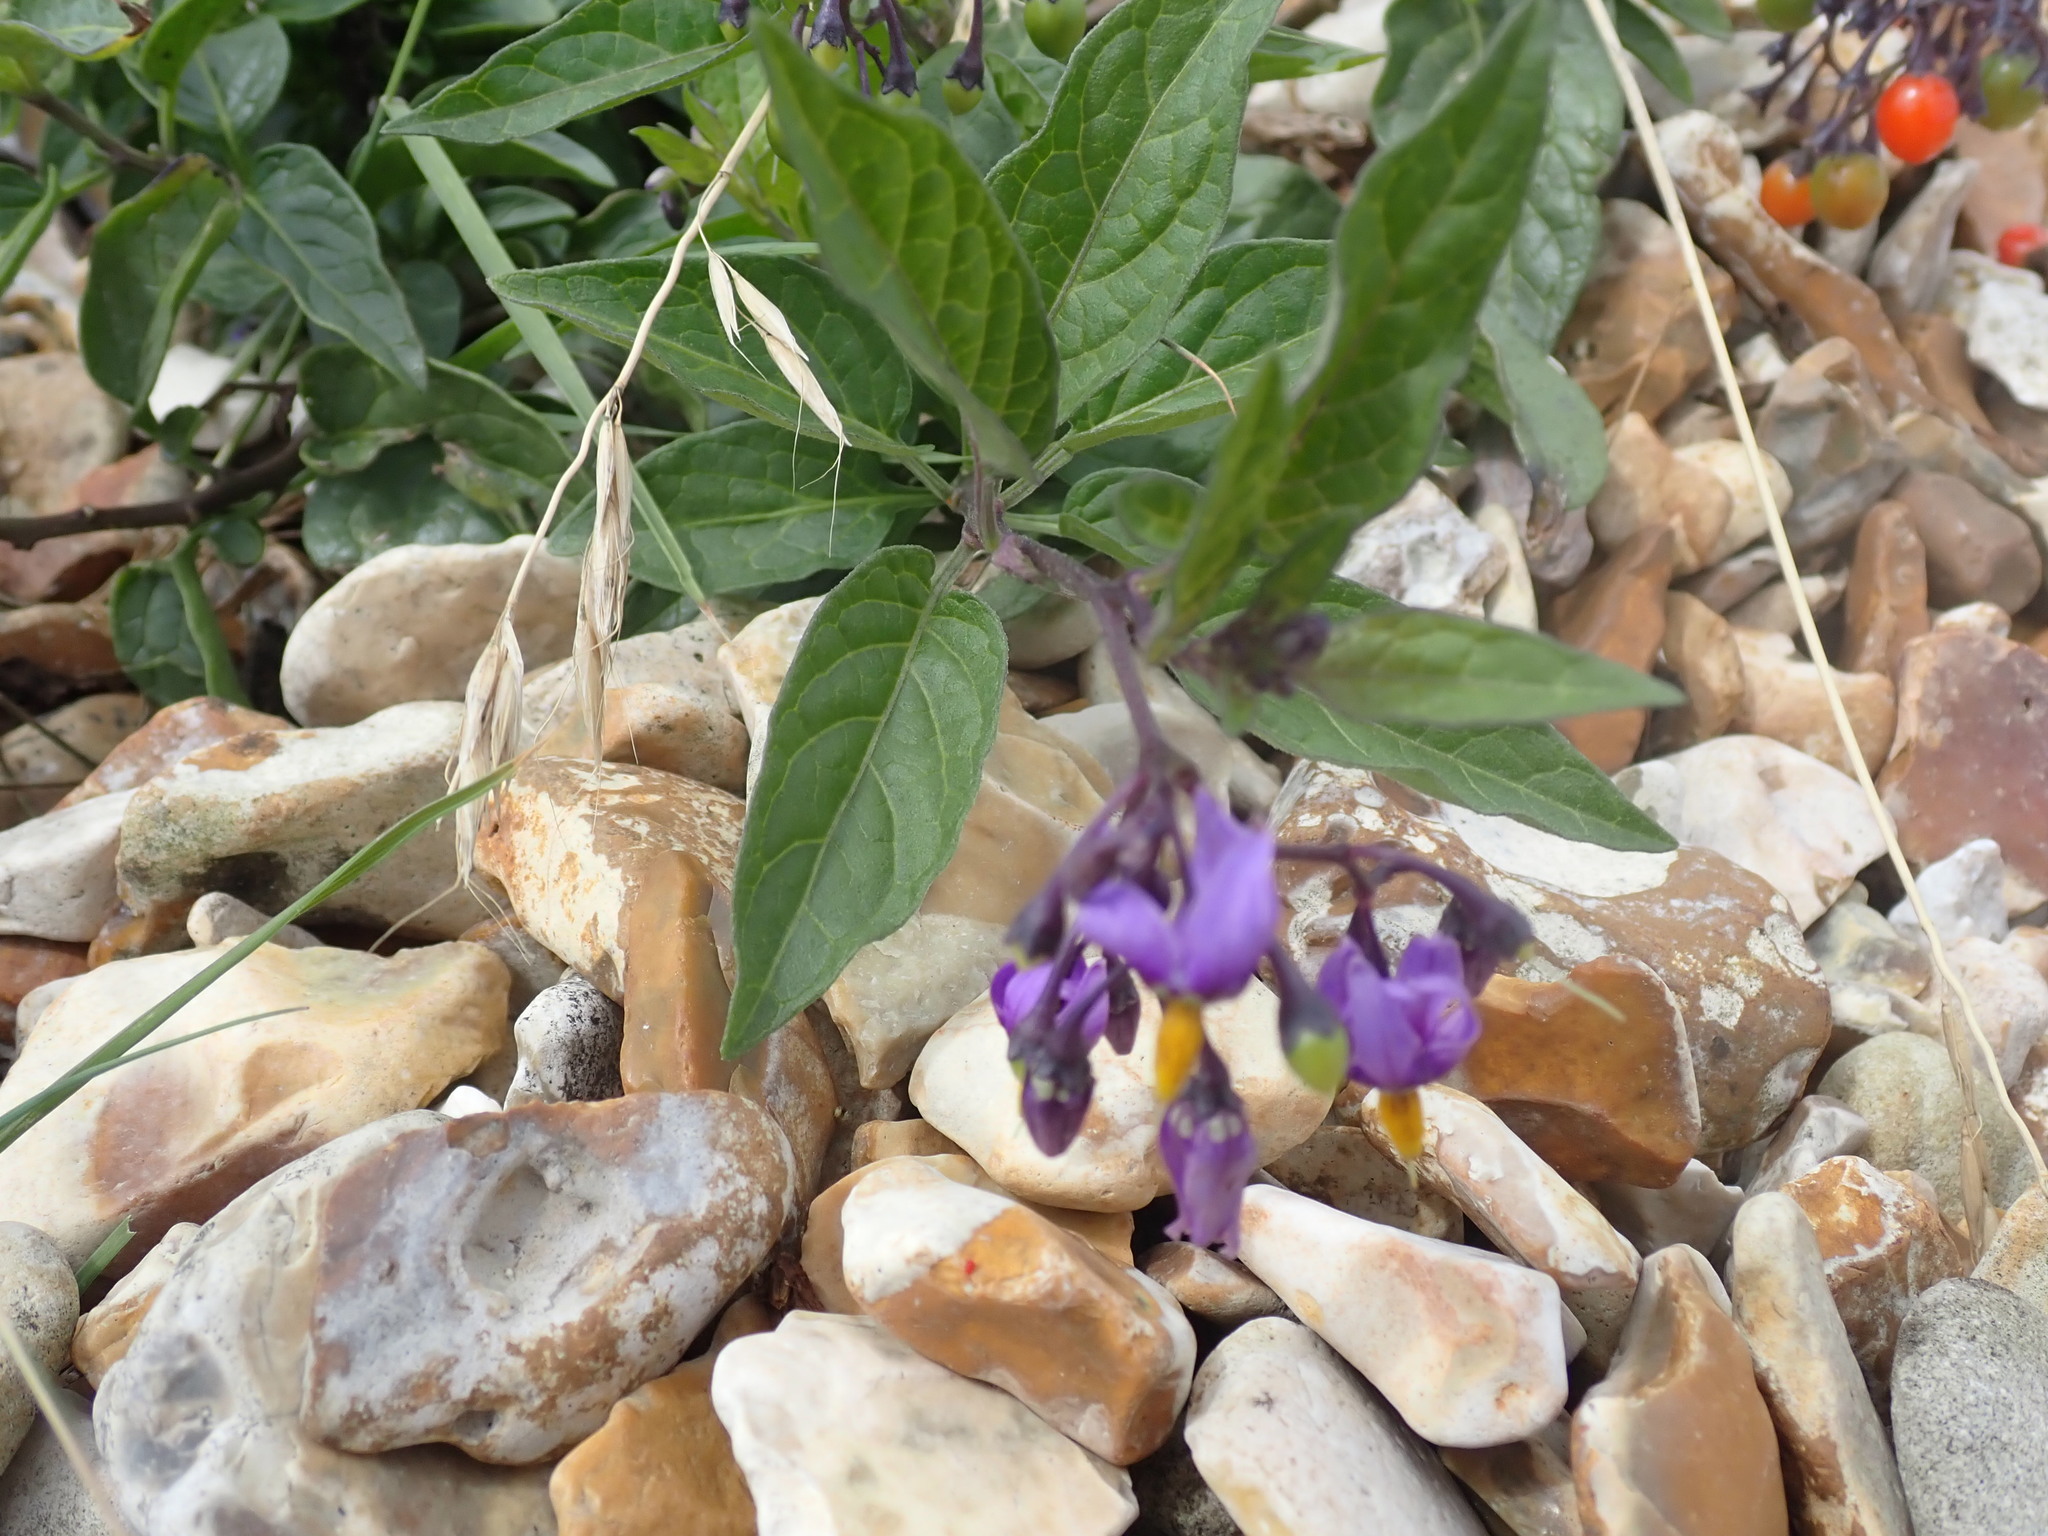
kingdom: Plantae
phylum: Tracheophyta
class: Magnoliopsida
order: Solanales
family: Solanaceae
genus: Solanum
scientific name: Solanum dulcamara
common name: Climbing nightshade
